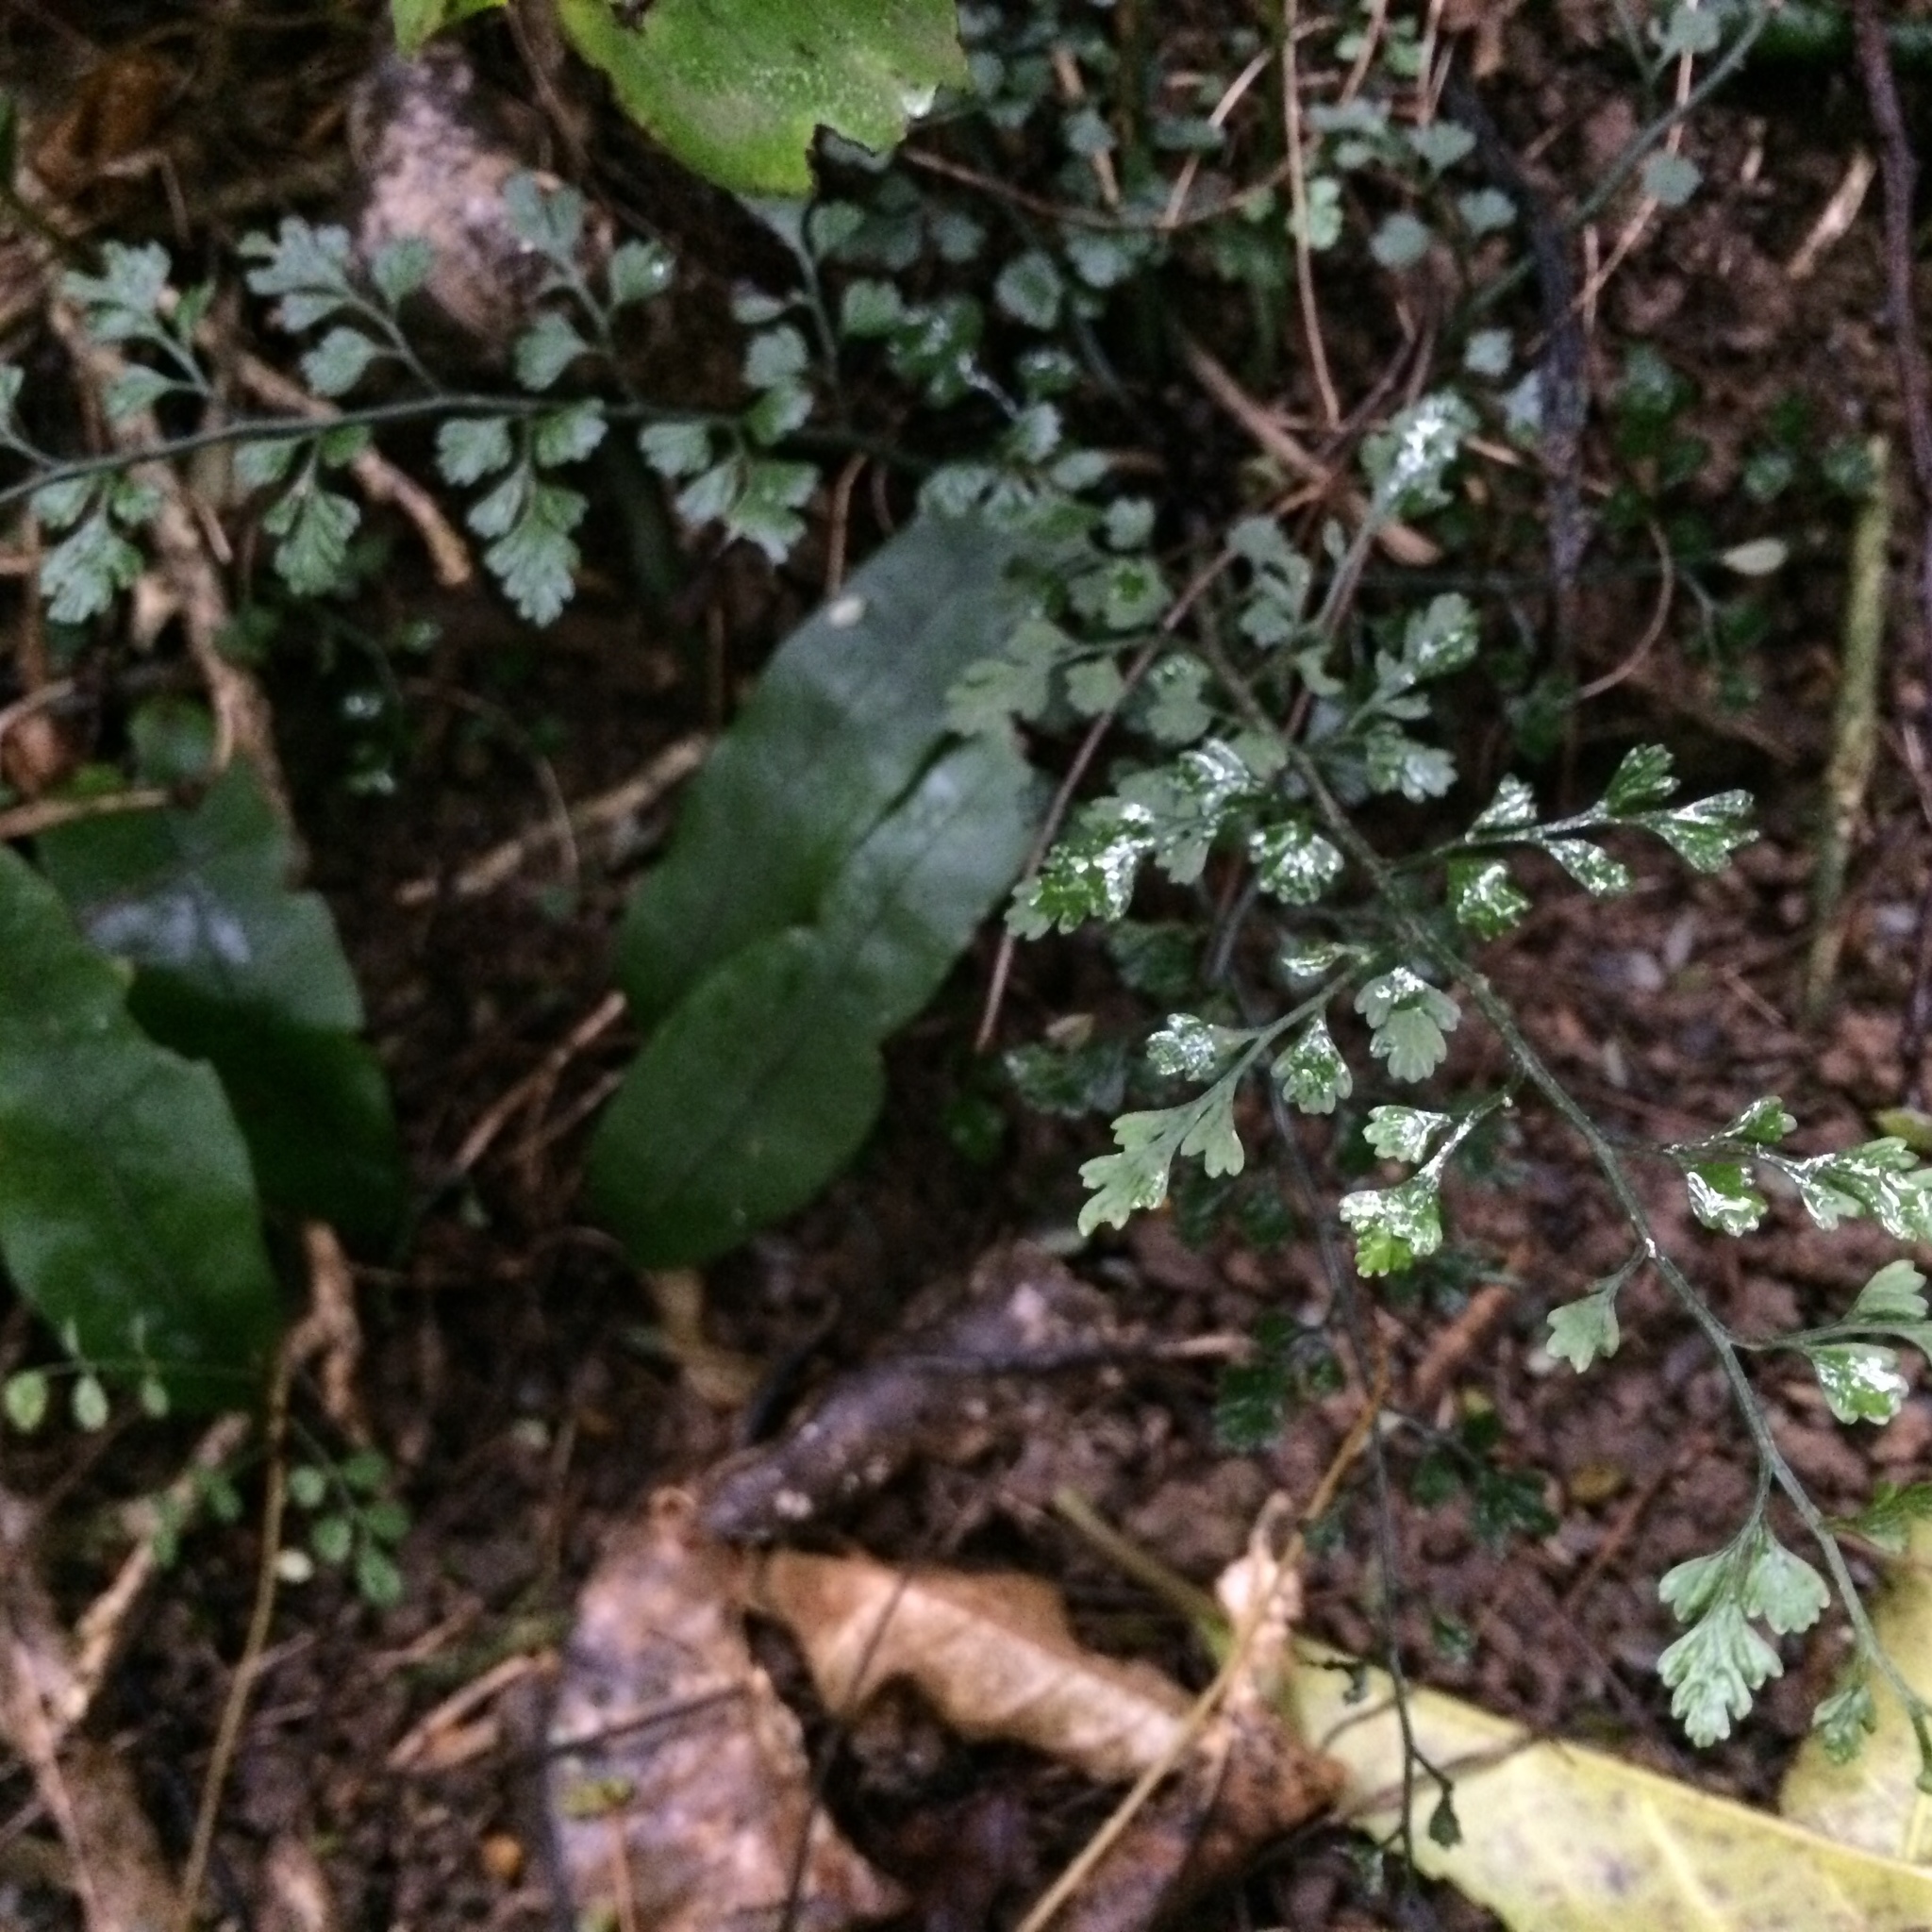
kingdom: Plantae
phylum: Tracheophyta
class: Polypodiopsida
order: Polypodiales
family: Aspleniaceae
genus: Asplenium
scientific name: Asplenium hookerianum
